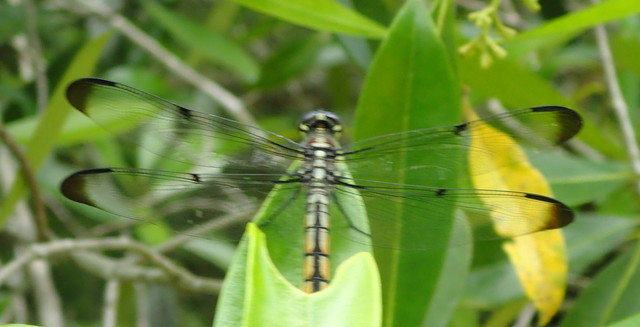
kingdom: Animalia
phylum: Arthropoda
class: Insecta
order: Odonata
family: Libellulidae
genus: Libellula
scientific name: Libellula vibrans
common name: Great blue skimmer
